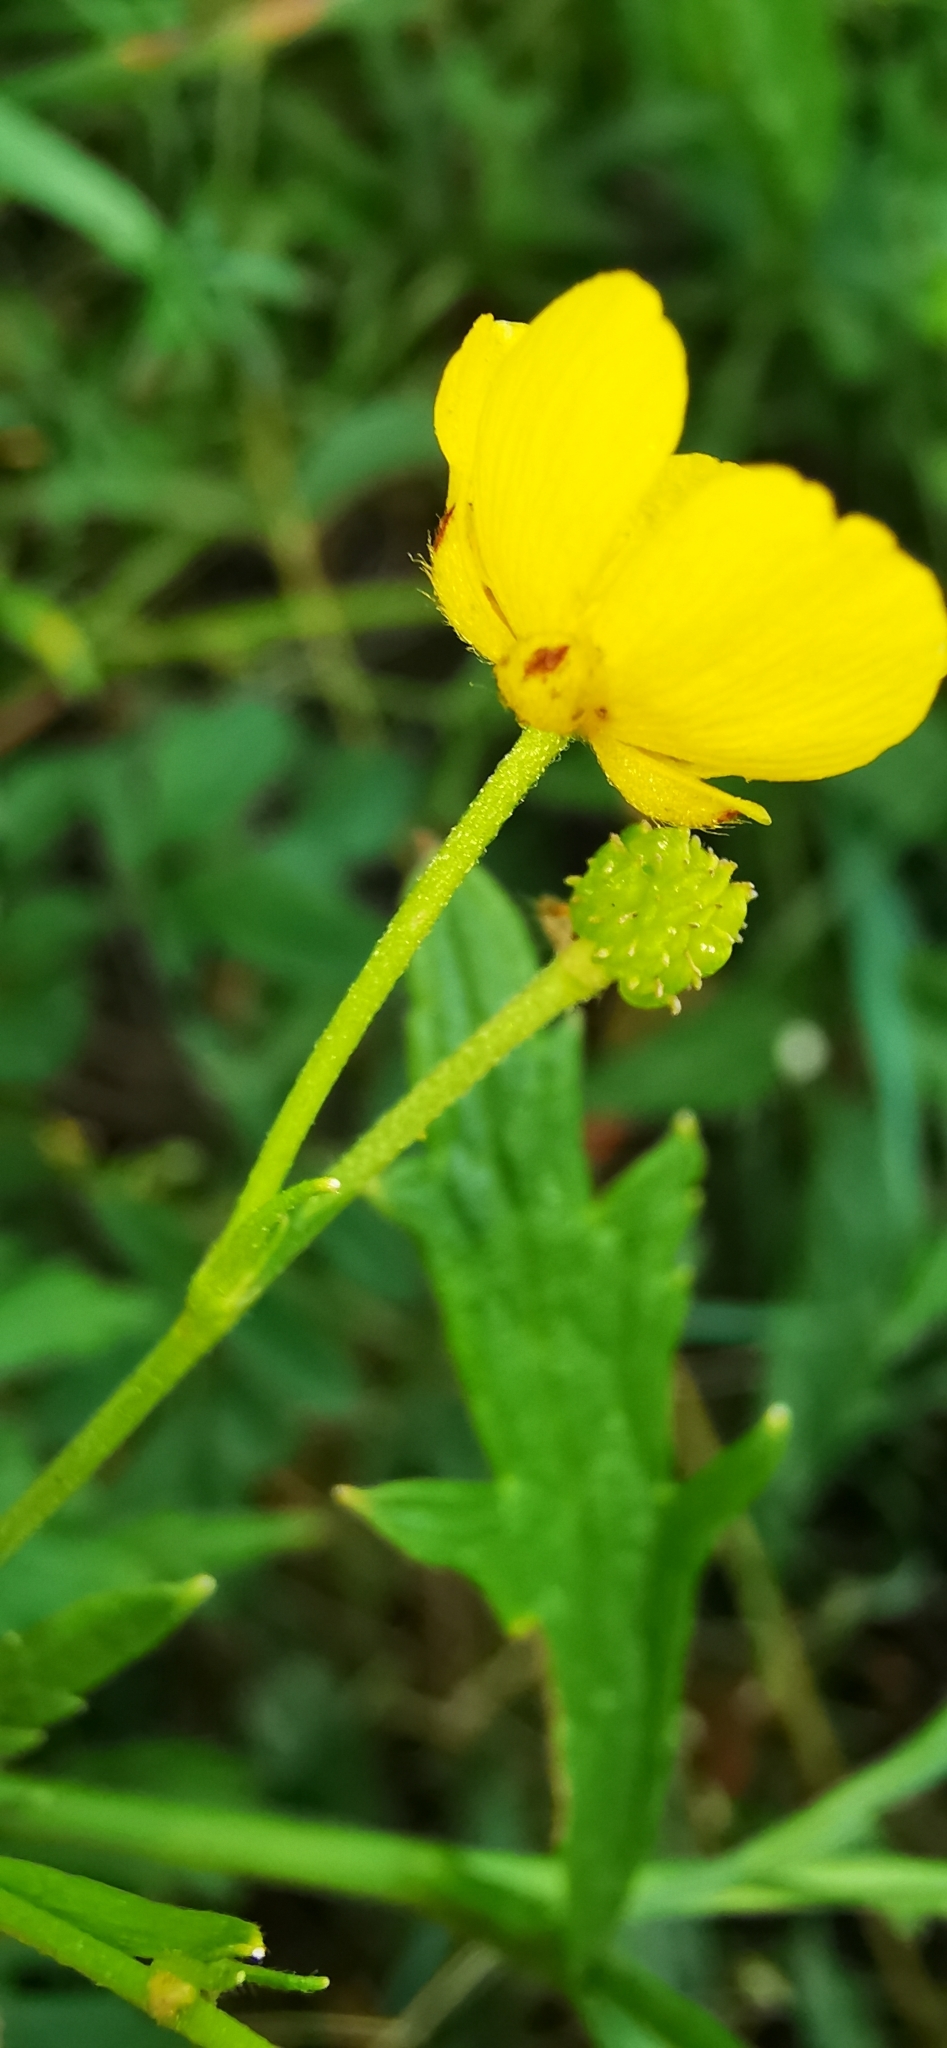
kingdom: Plantae
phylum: Tracheophyta
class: Magnoliopsida
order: Ranunculales
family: Ranunculaceae
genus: Ranunculus
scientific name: Ranunculus acris
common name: Meadow buttercup
